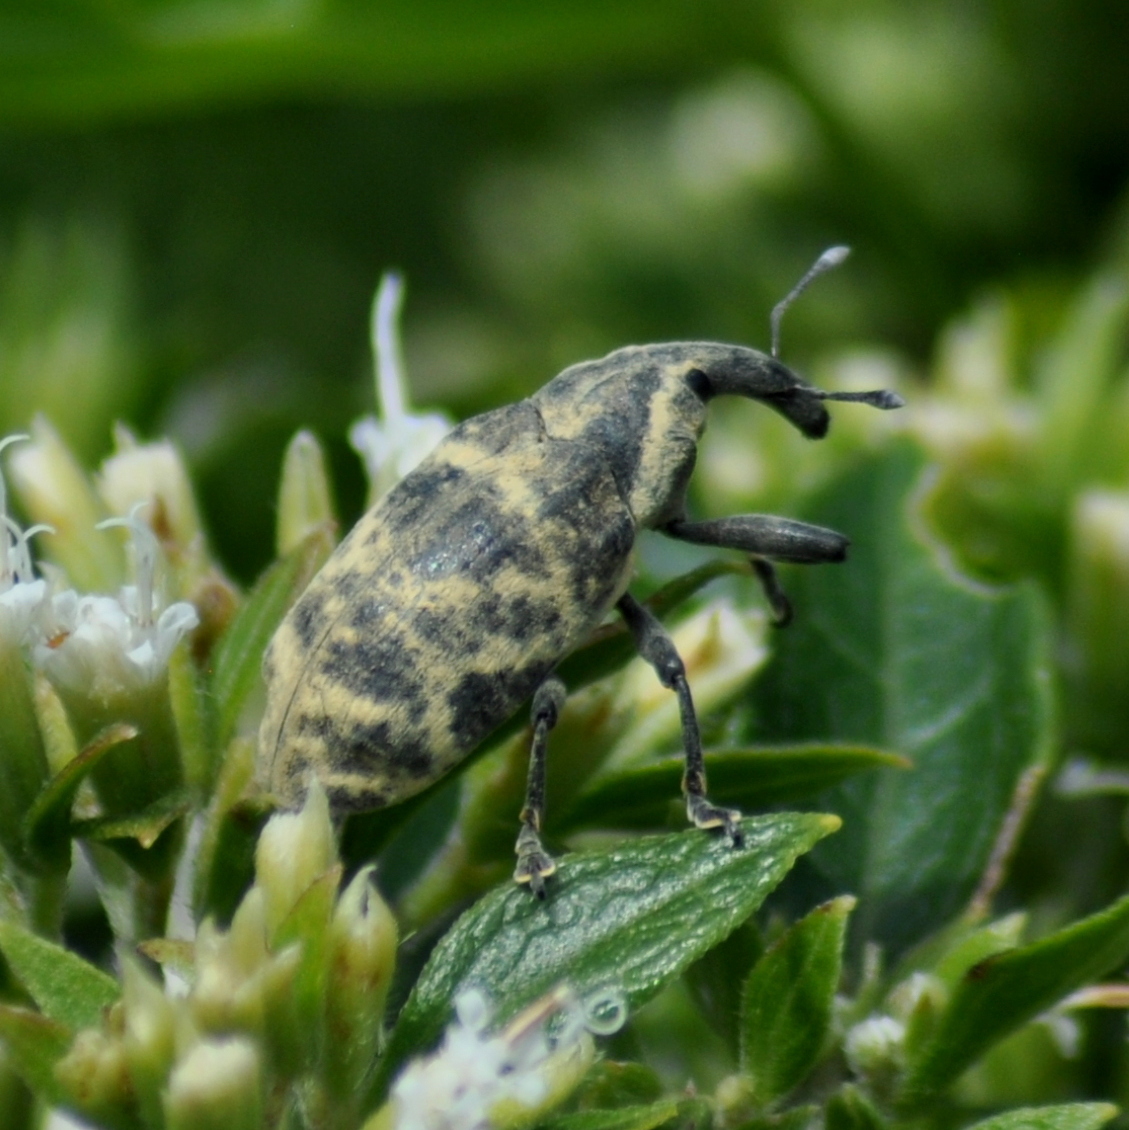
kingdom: Animalia
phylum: Arthropoda
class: Insecta
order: Coleoptera
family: Curculionidae
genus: Ileomus
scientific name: Ileomus mucoreus
